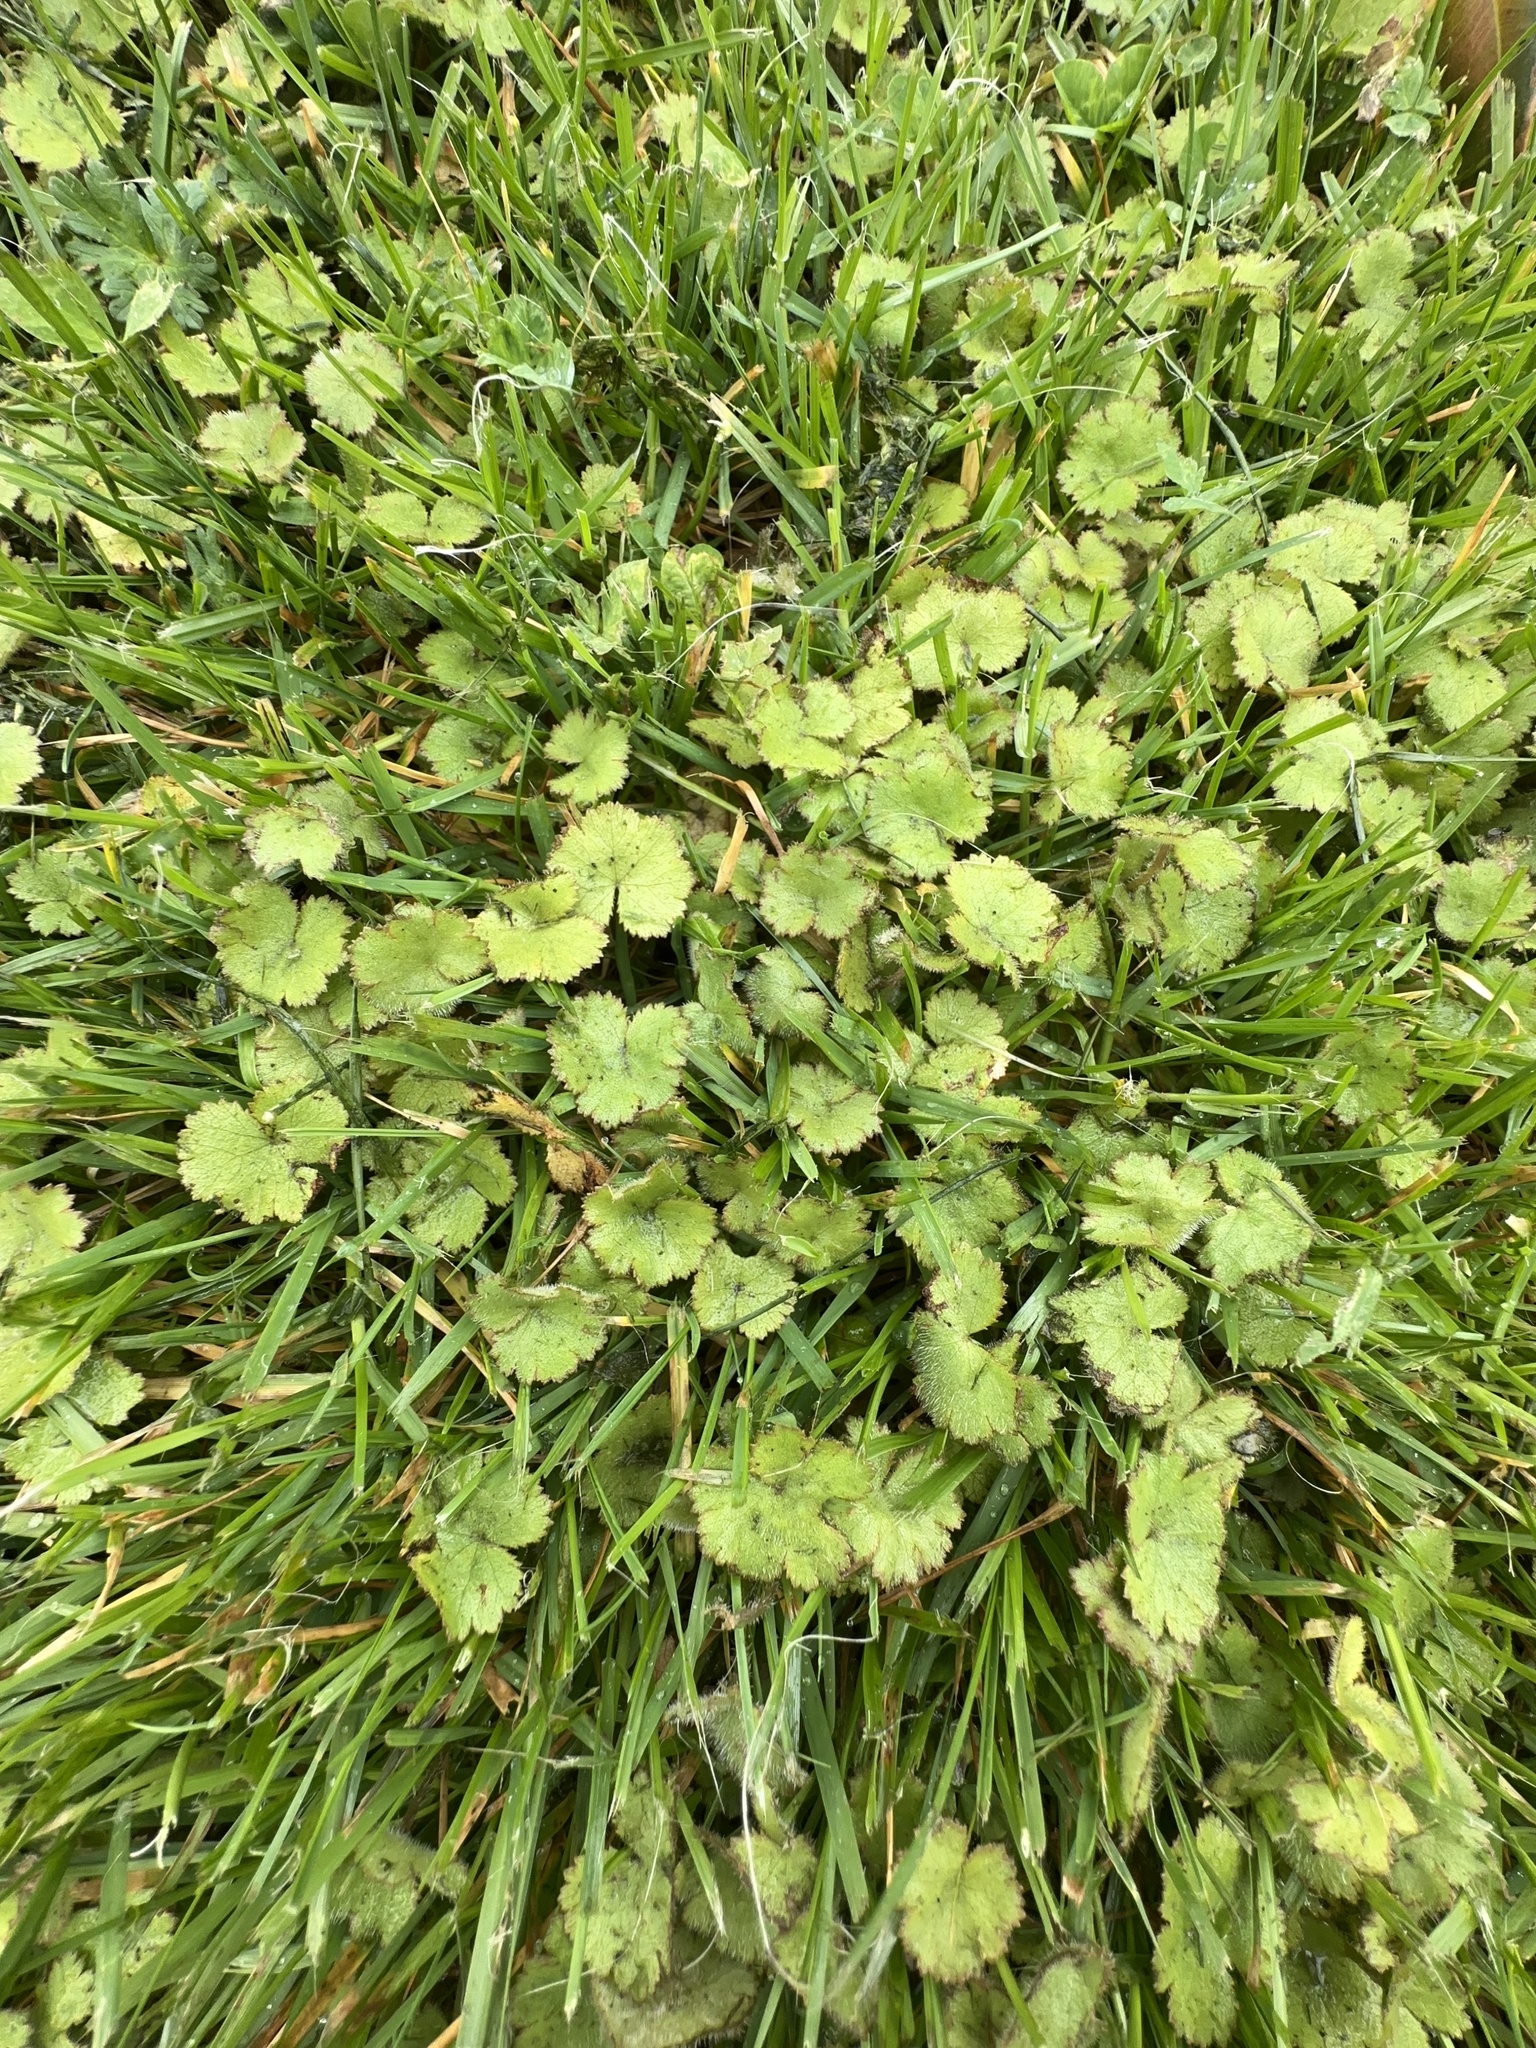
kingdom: Plantae
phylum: Tracheophyta
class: Magnoliopsida
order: Apiales
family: Araliaceae
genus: Hydrocotyle
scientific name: Hydrocotyle moschata
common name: Hairy pennywort
